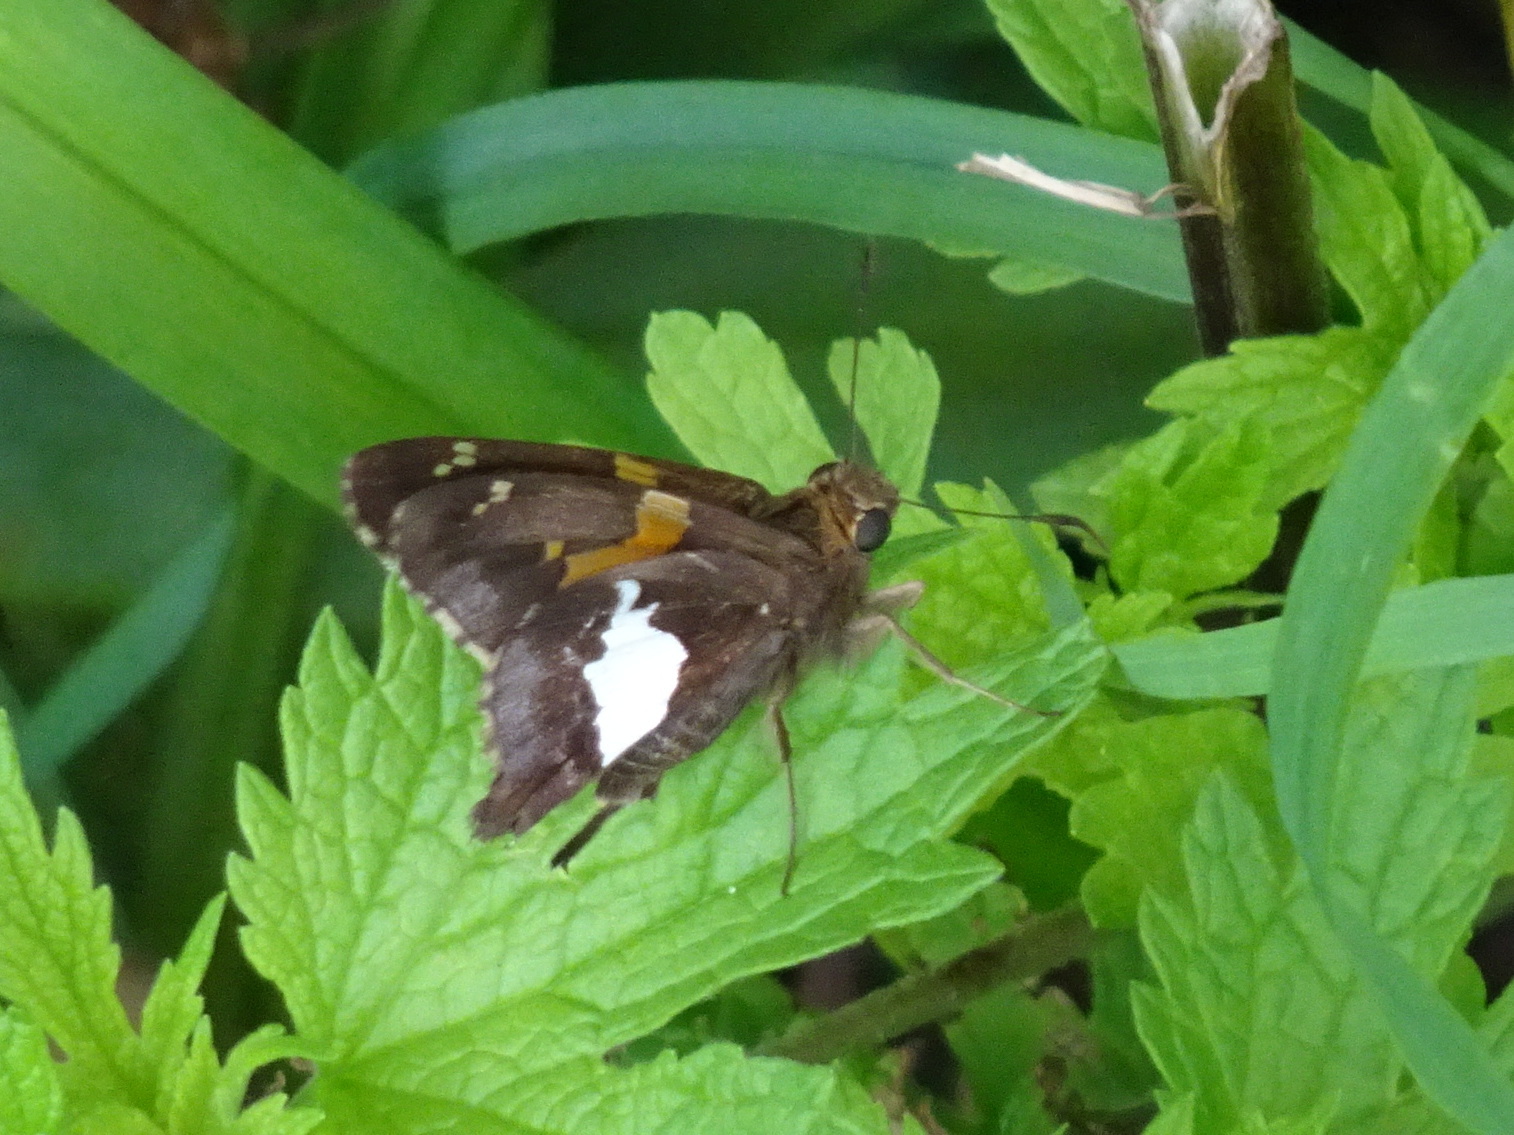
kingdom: Animalia
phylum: Arthropoda
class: Insecta
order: Lepidoptera
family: Hesperiidae
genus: Epargyreus
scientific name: Epargyreus clarus
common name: Silver-spotted skipper
